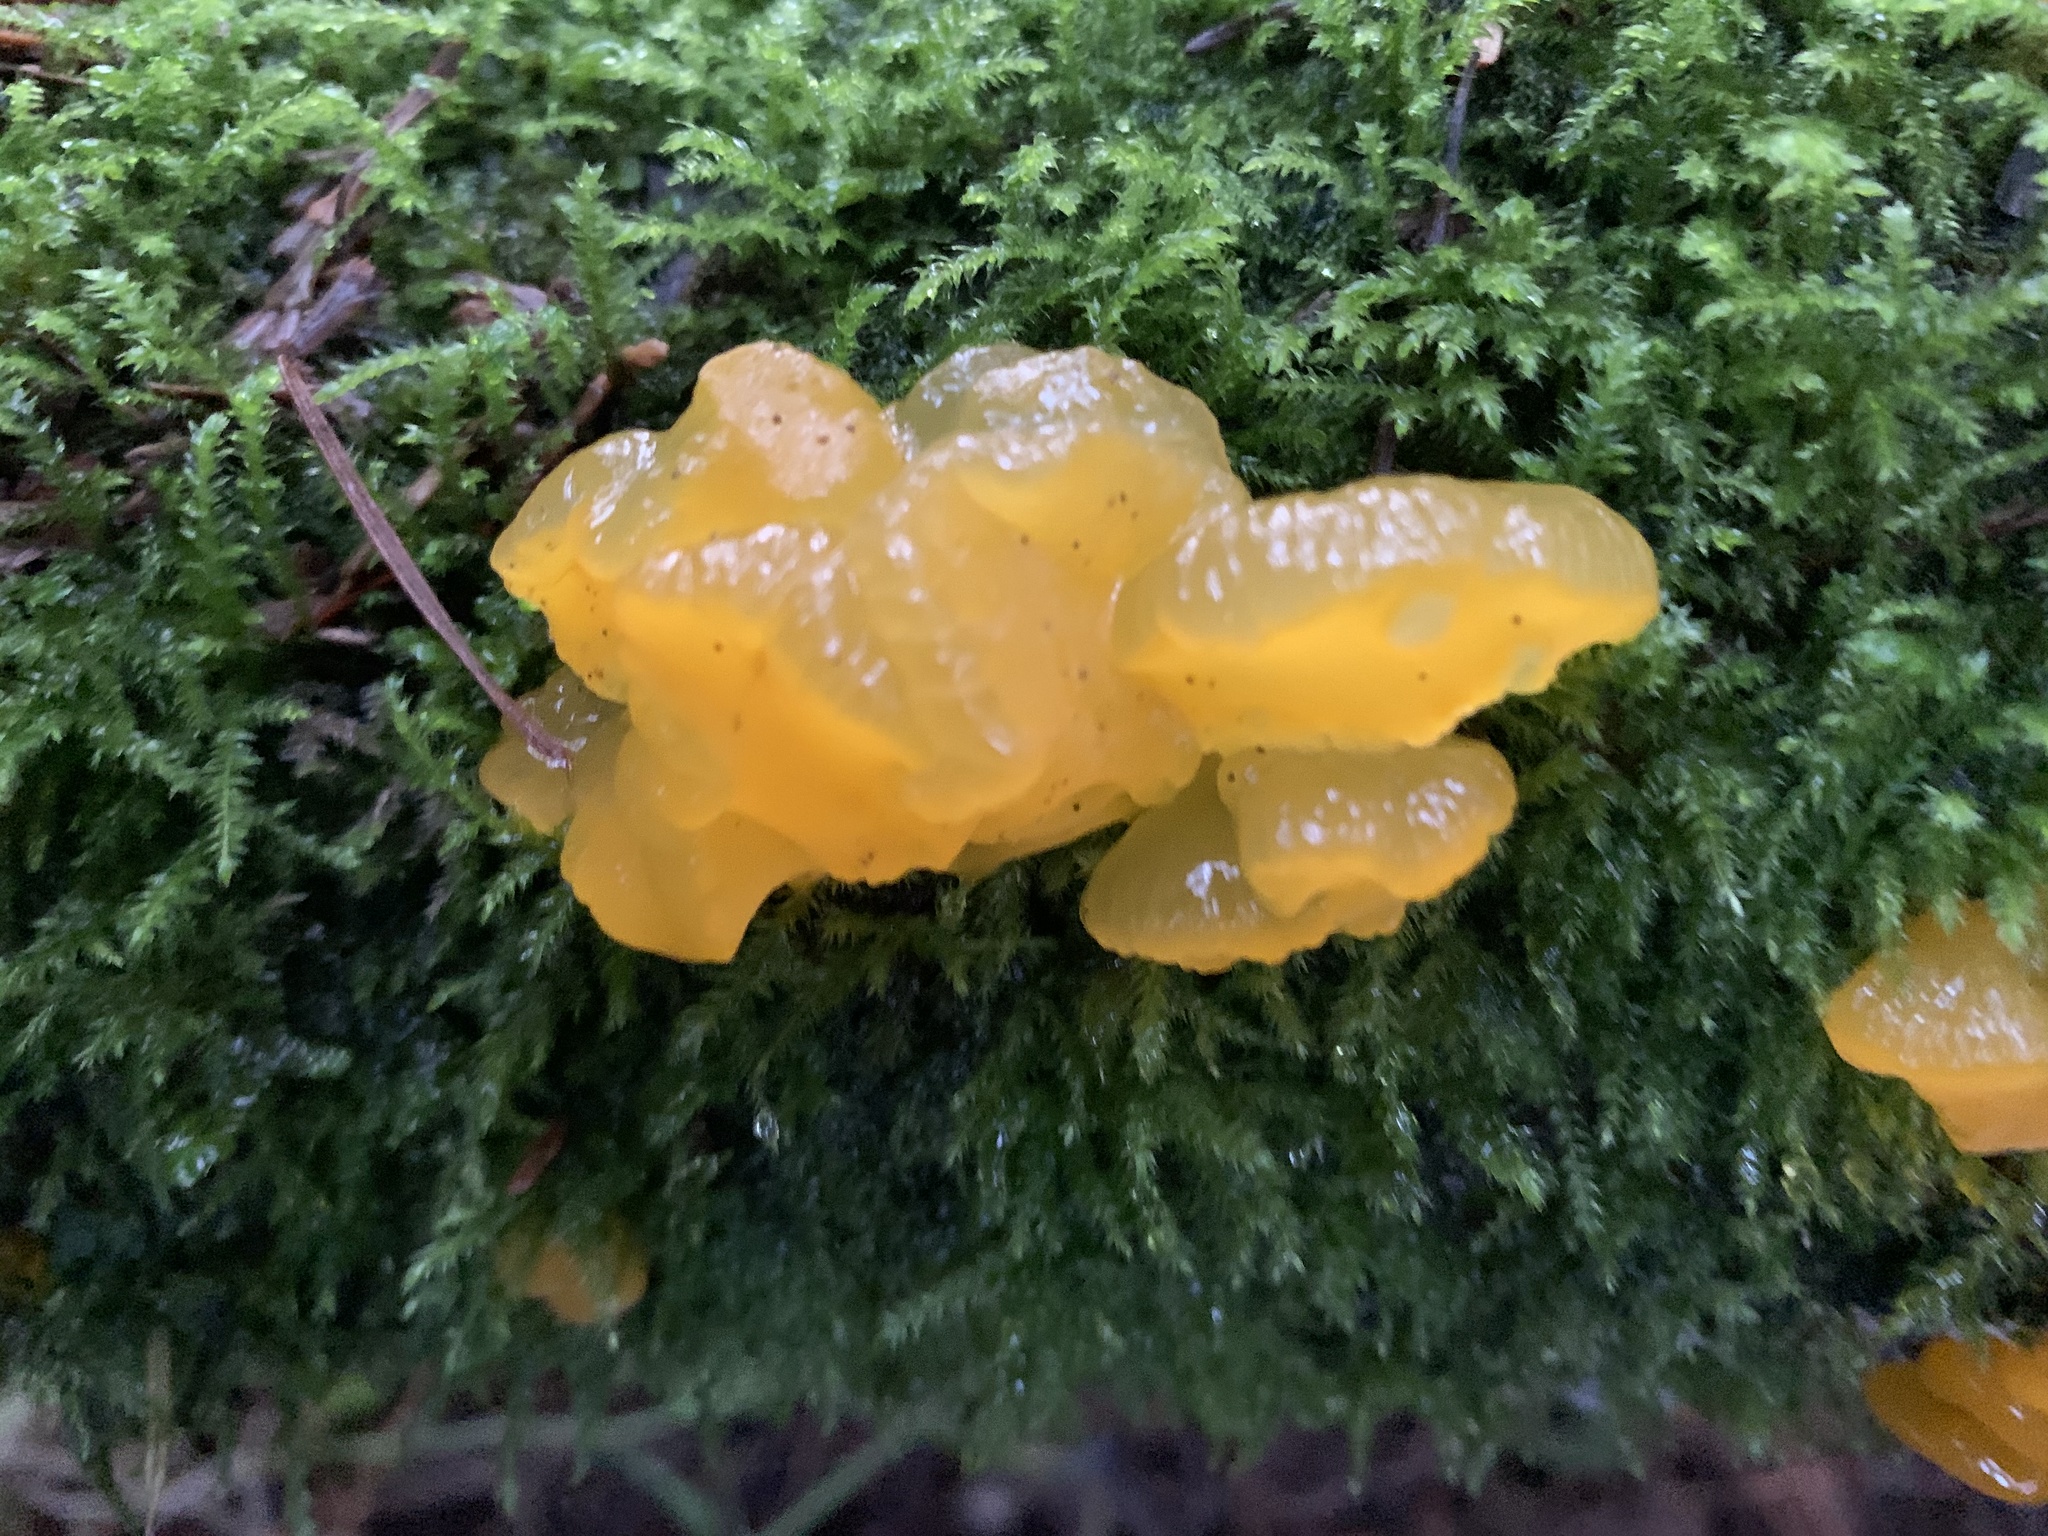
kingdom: Fungi
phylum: Basidiomycota
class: Dacrymycetes
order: Dacrymycetales
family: Dacrymycetaceae
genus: Dacrymyces
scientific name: Dacrymyces chrysospermus
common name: Orange jelly spot
